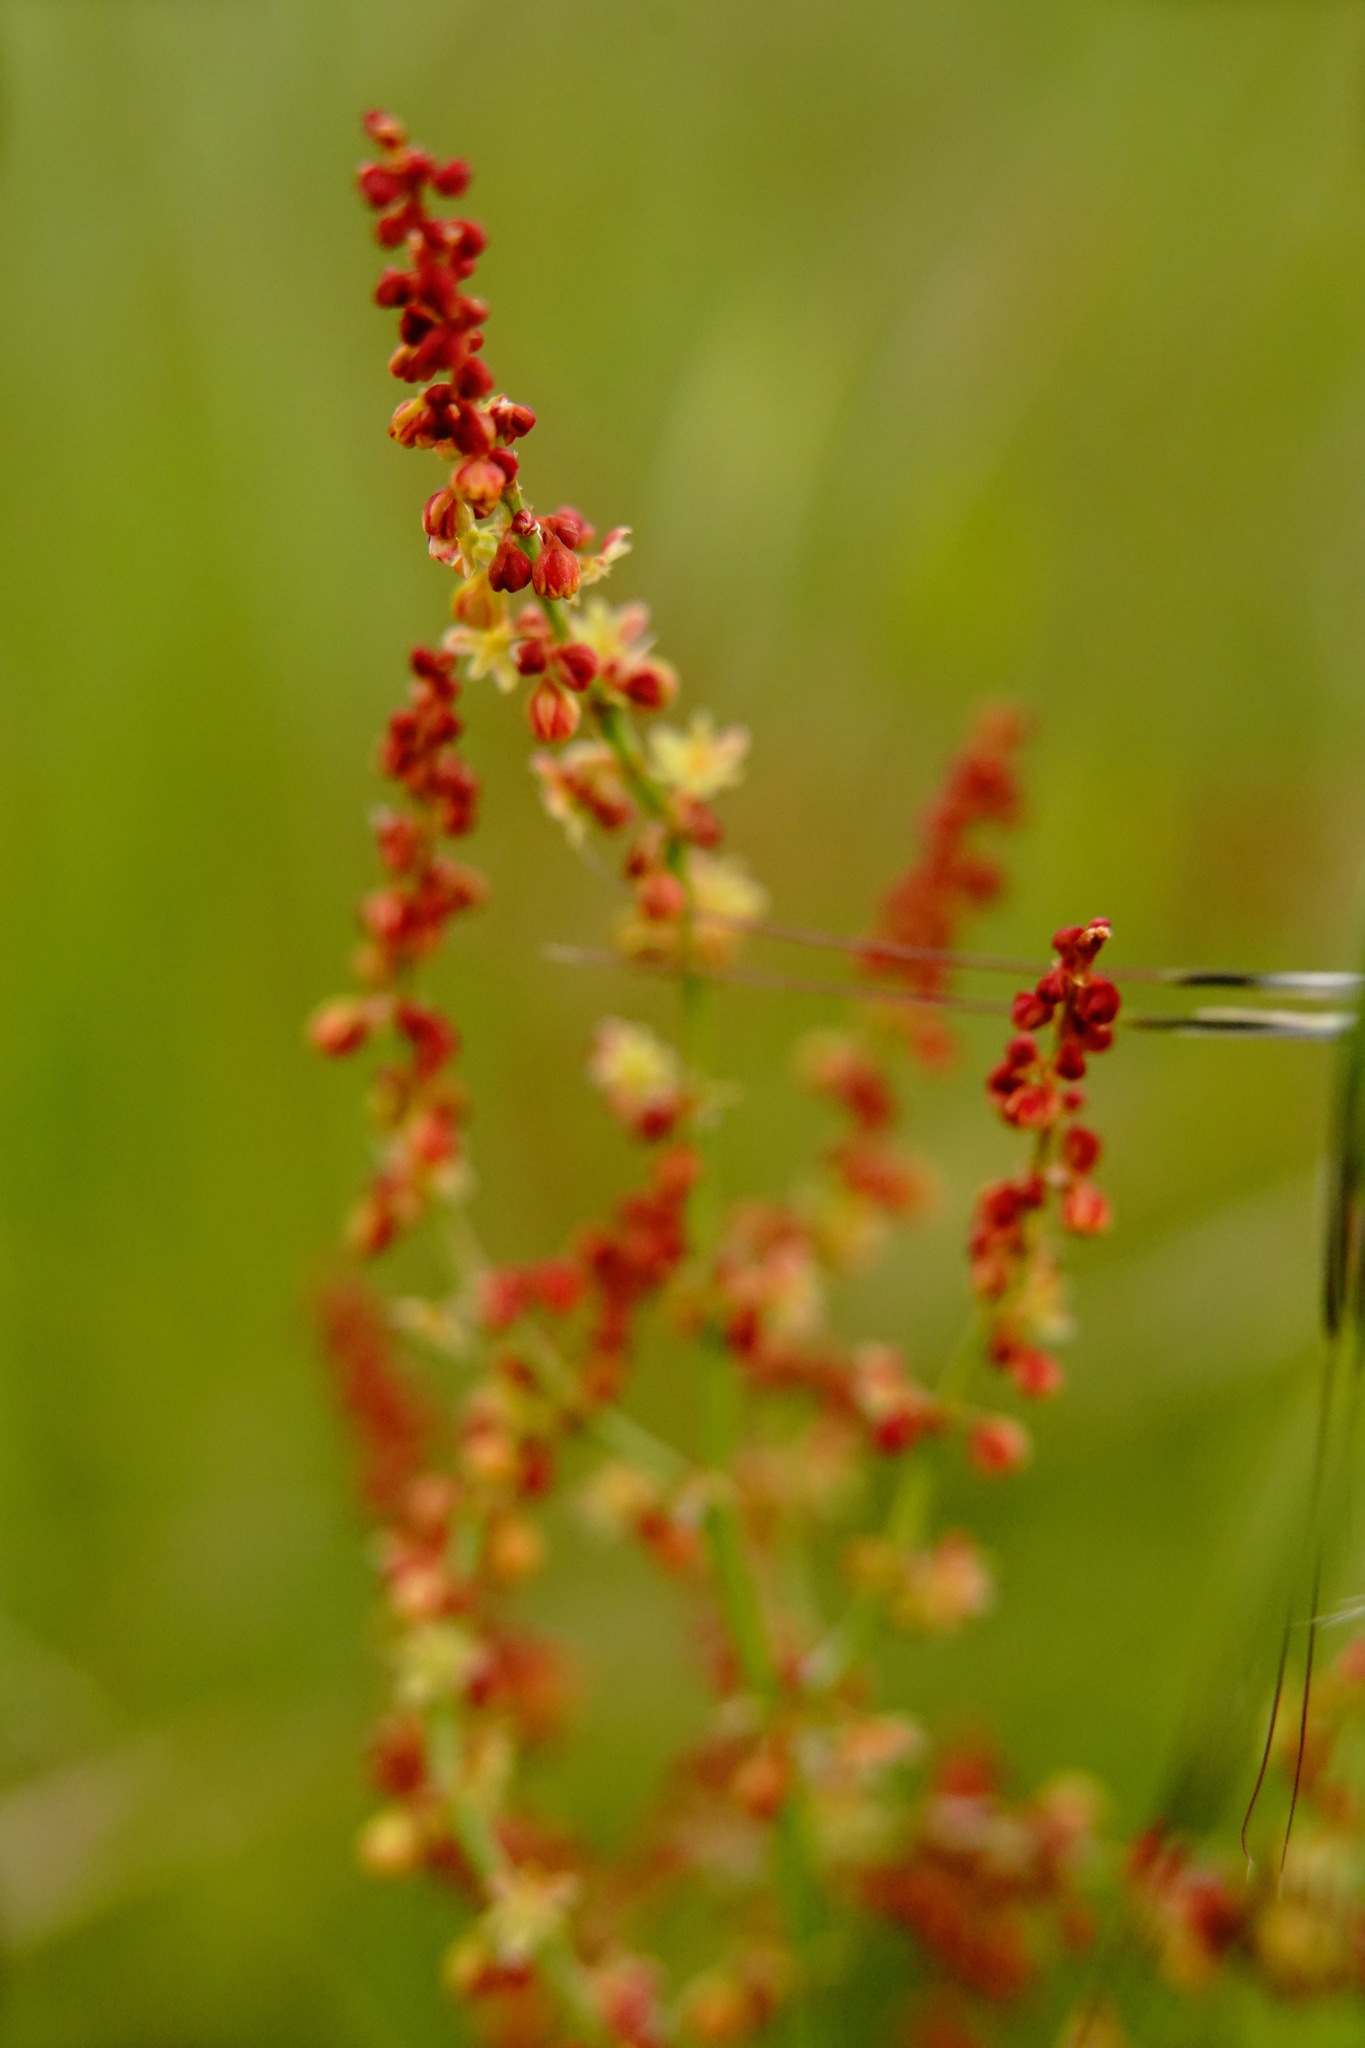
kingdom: Plantae
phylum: Tracheophyta
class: Magnoliopsida
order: Caryophyllales
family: Polygonaceae
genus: Rumex
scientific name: Rumex acetosella
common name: Common sheep sorrel
